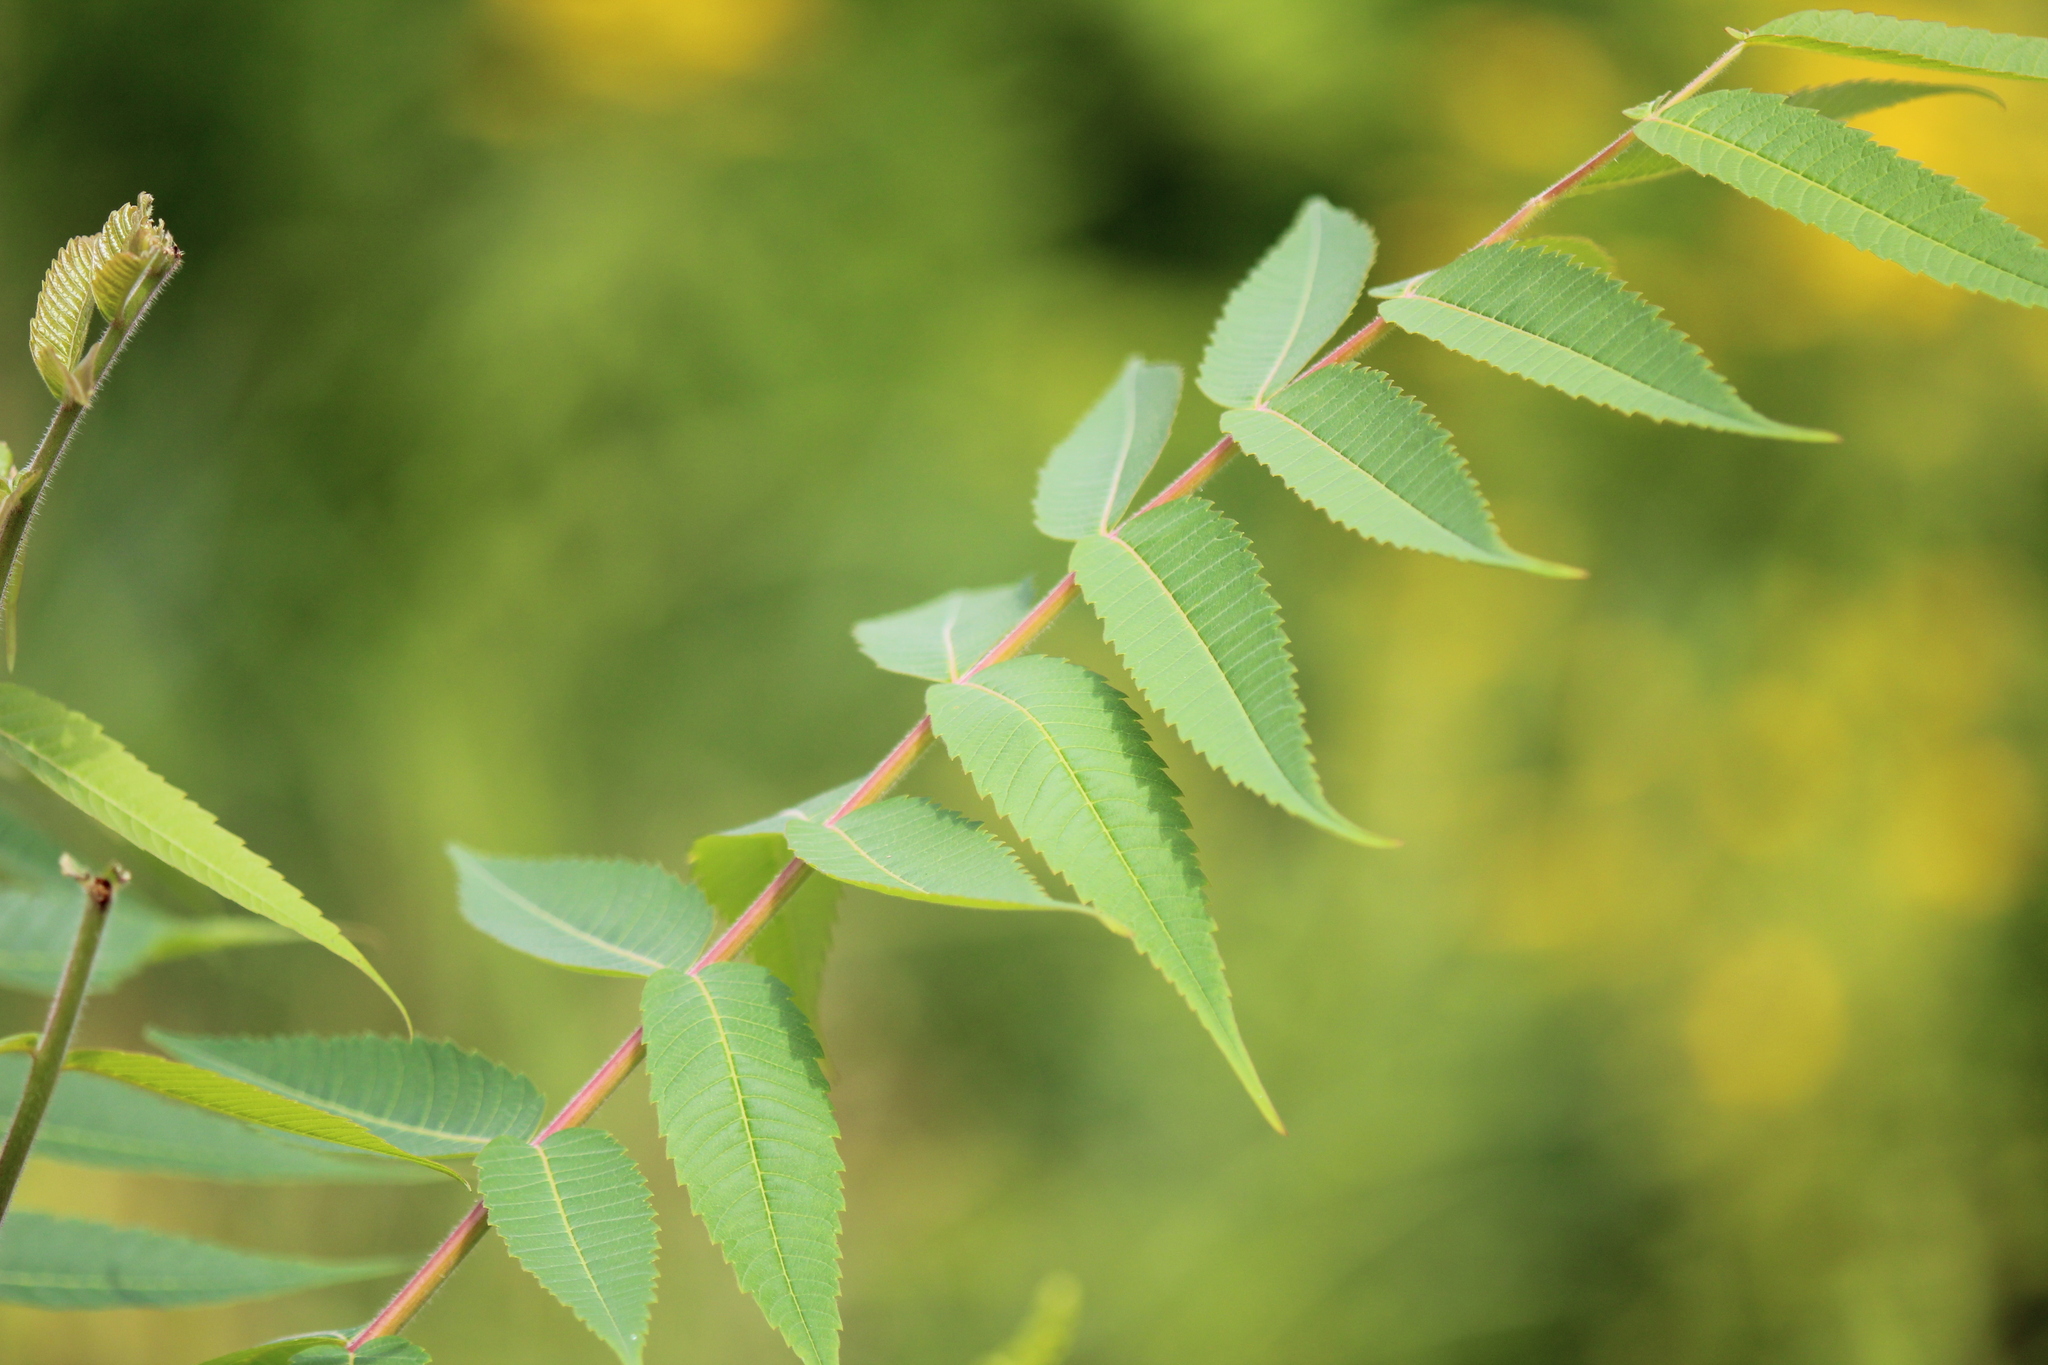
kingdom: Plantae
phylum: Tracheophyta
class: Magnoliopsida
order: Sapindales
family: Anacardiaceae
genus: Rhus
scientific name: Rhus typhina
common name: Staghorn sumac
